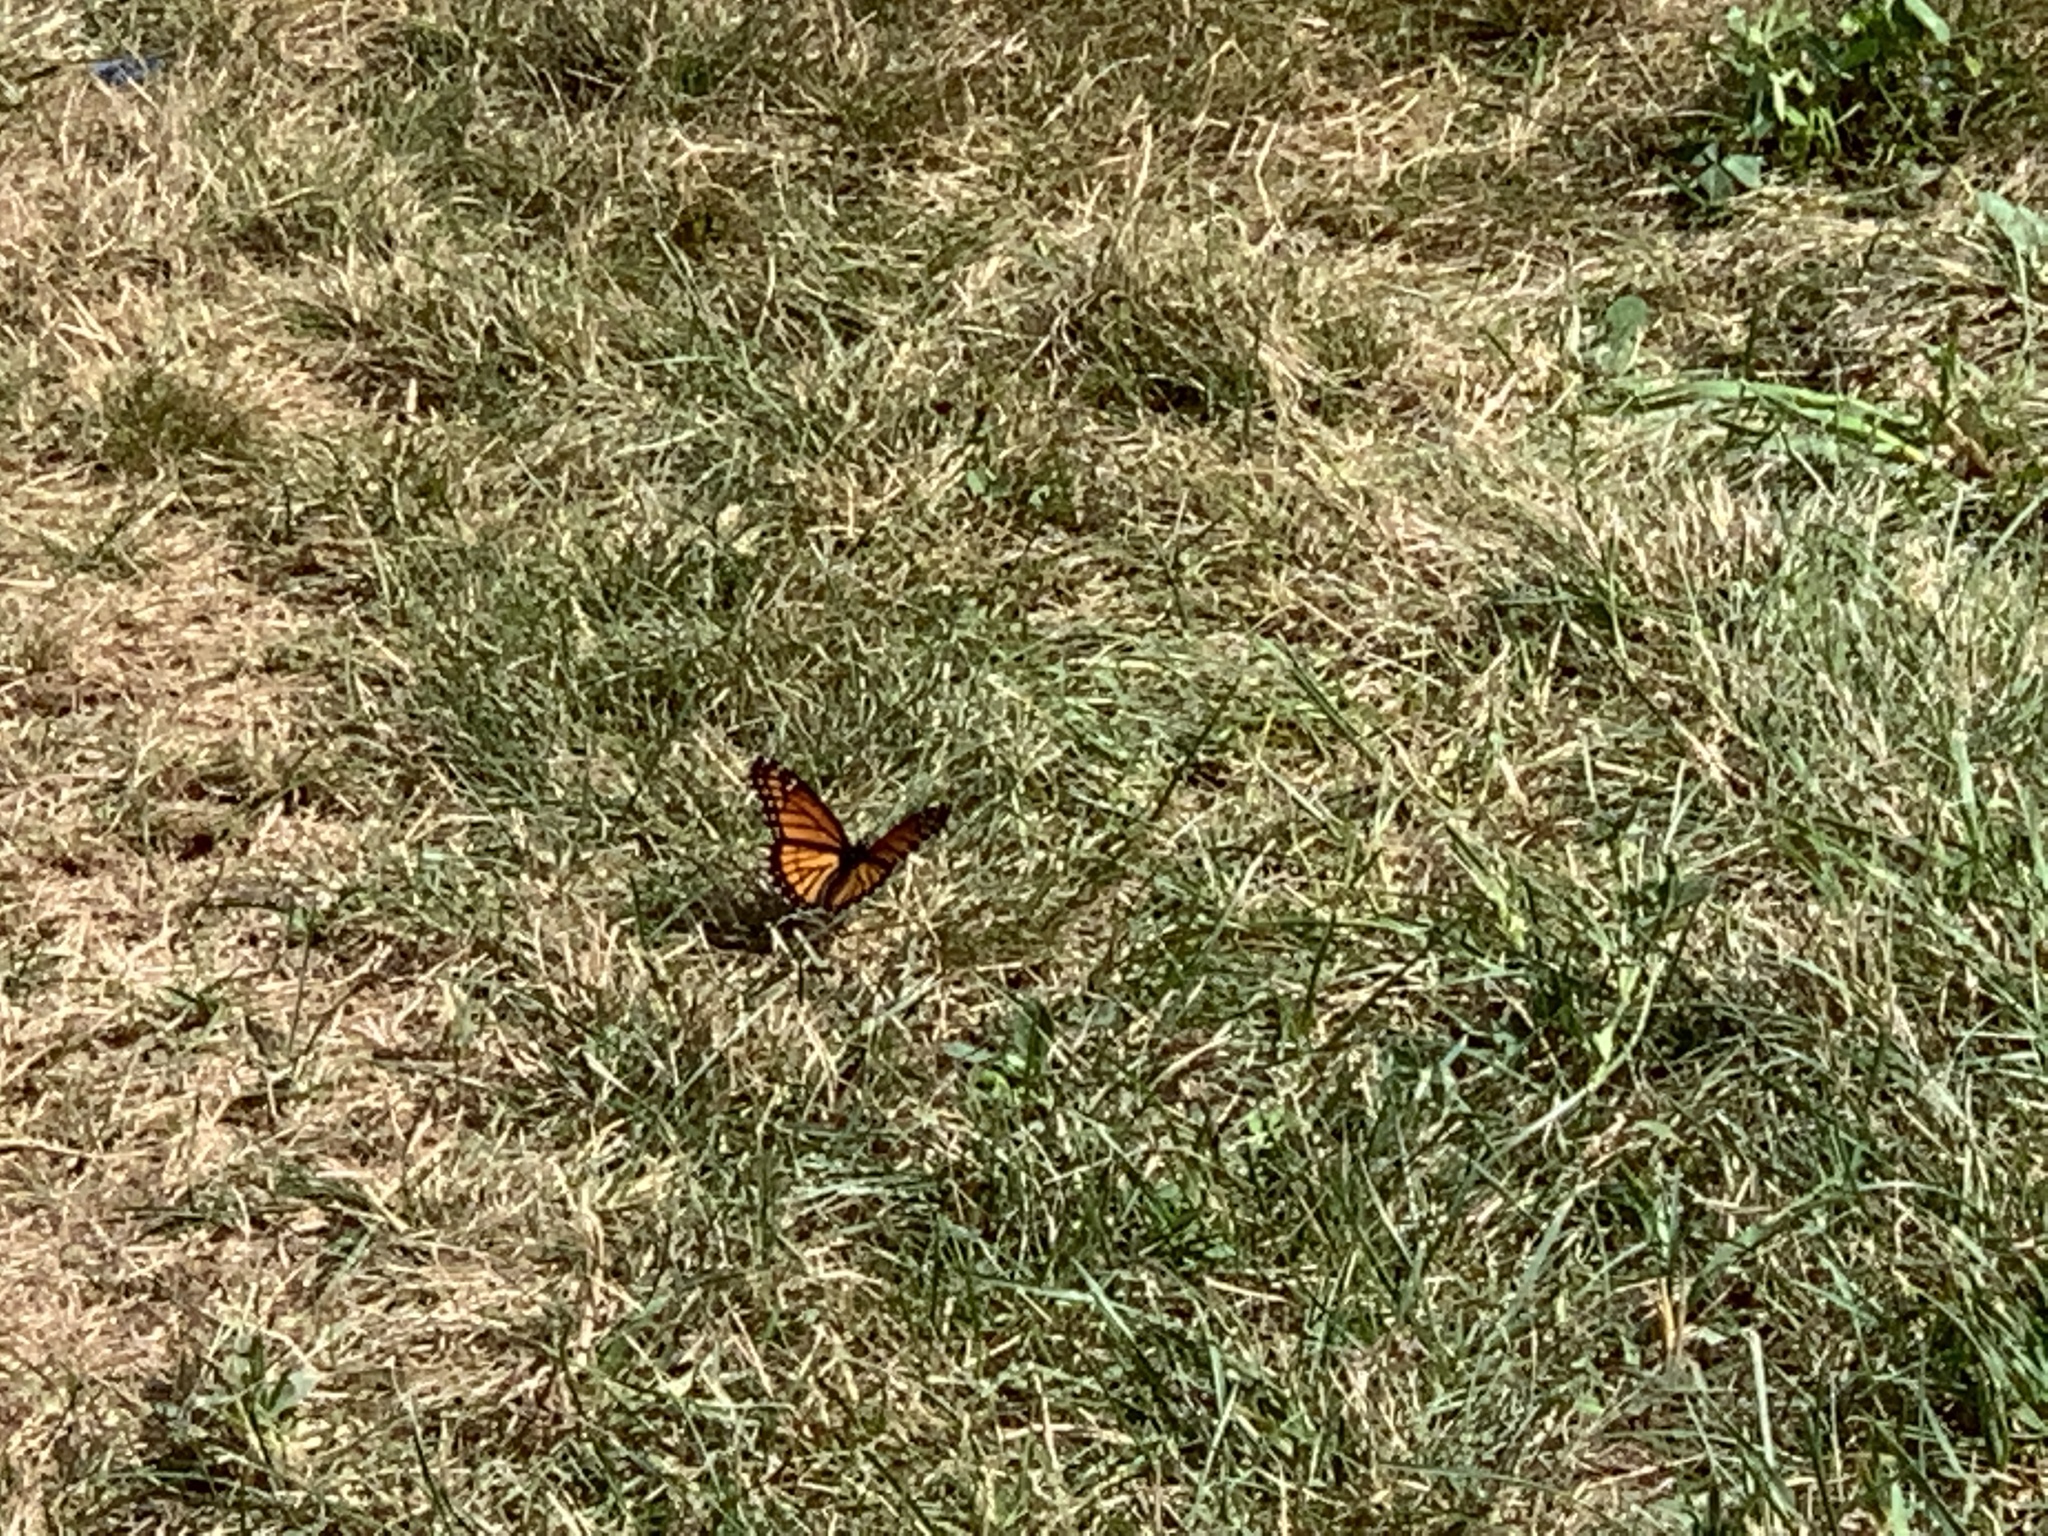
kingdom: Animalia
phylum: Arthropoda
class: Insecta
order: Lepidoptera
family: Nymphalidae
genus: Limenitis
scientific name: Limenitis archippus
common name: Viceroy
